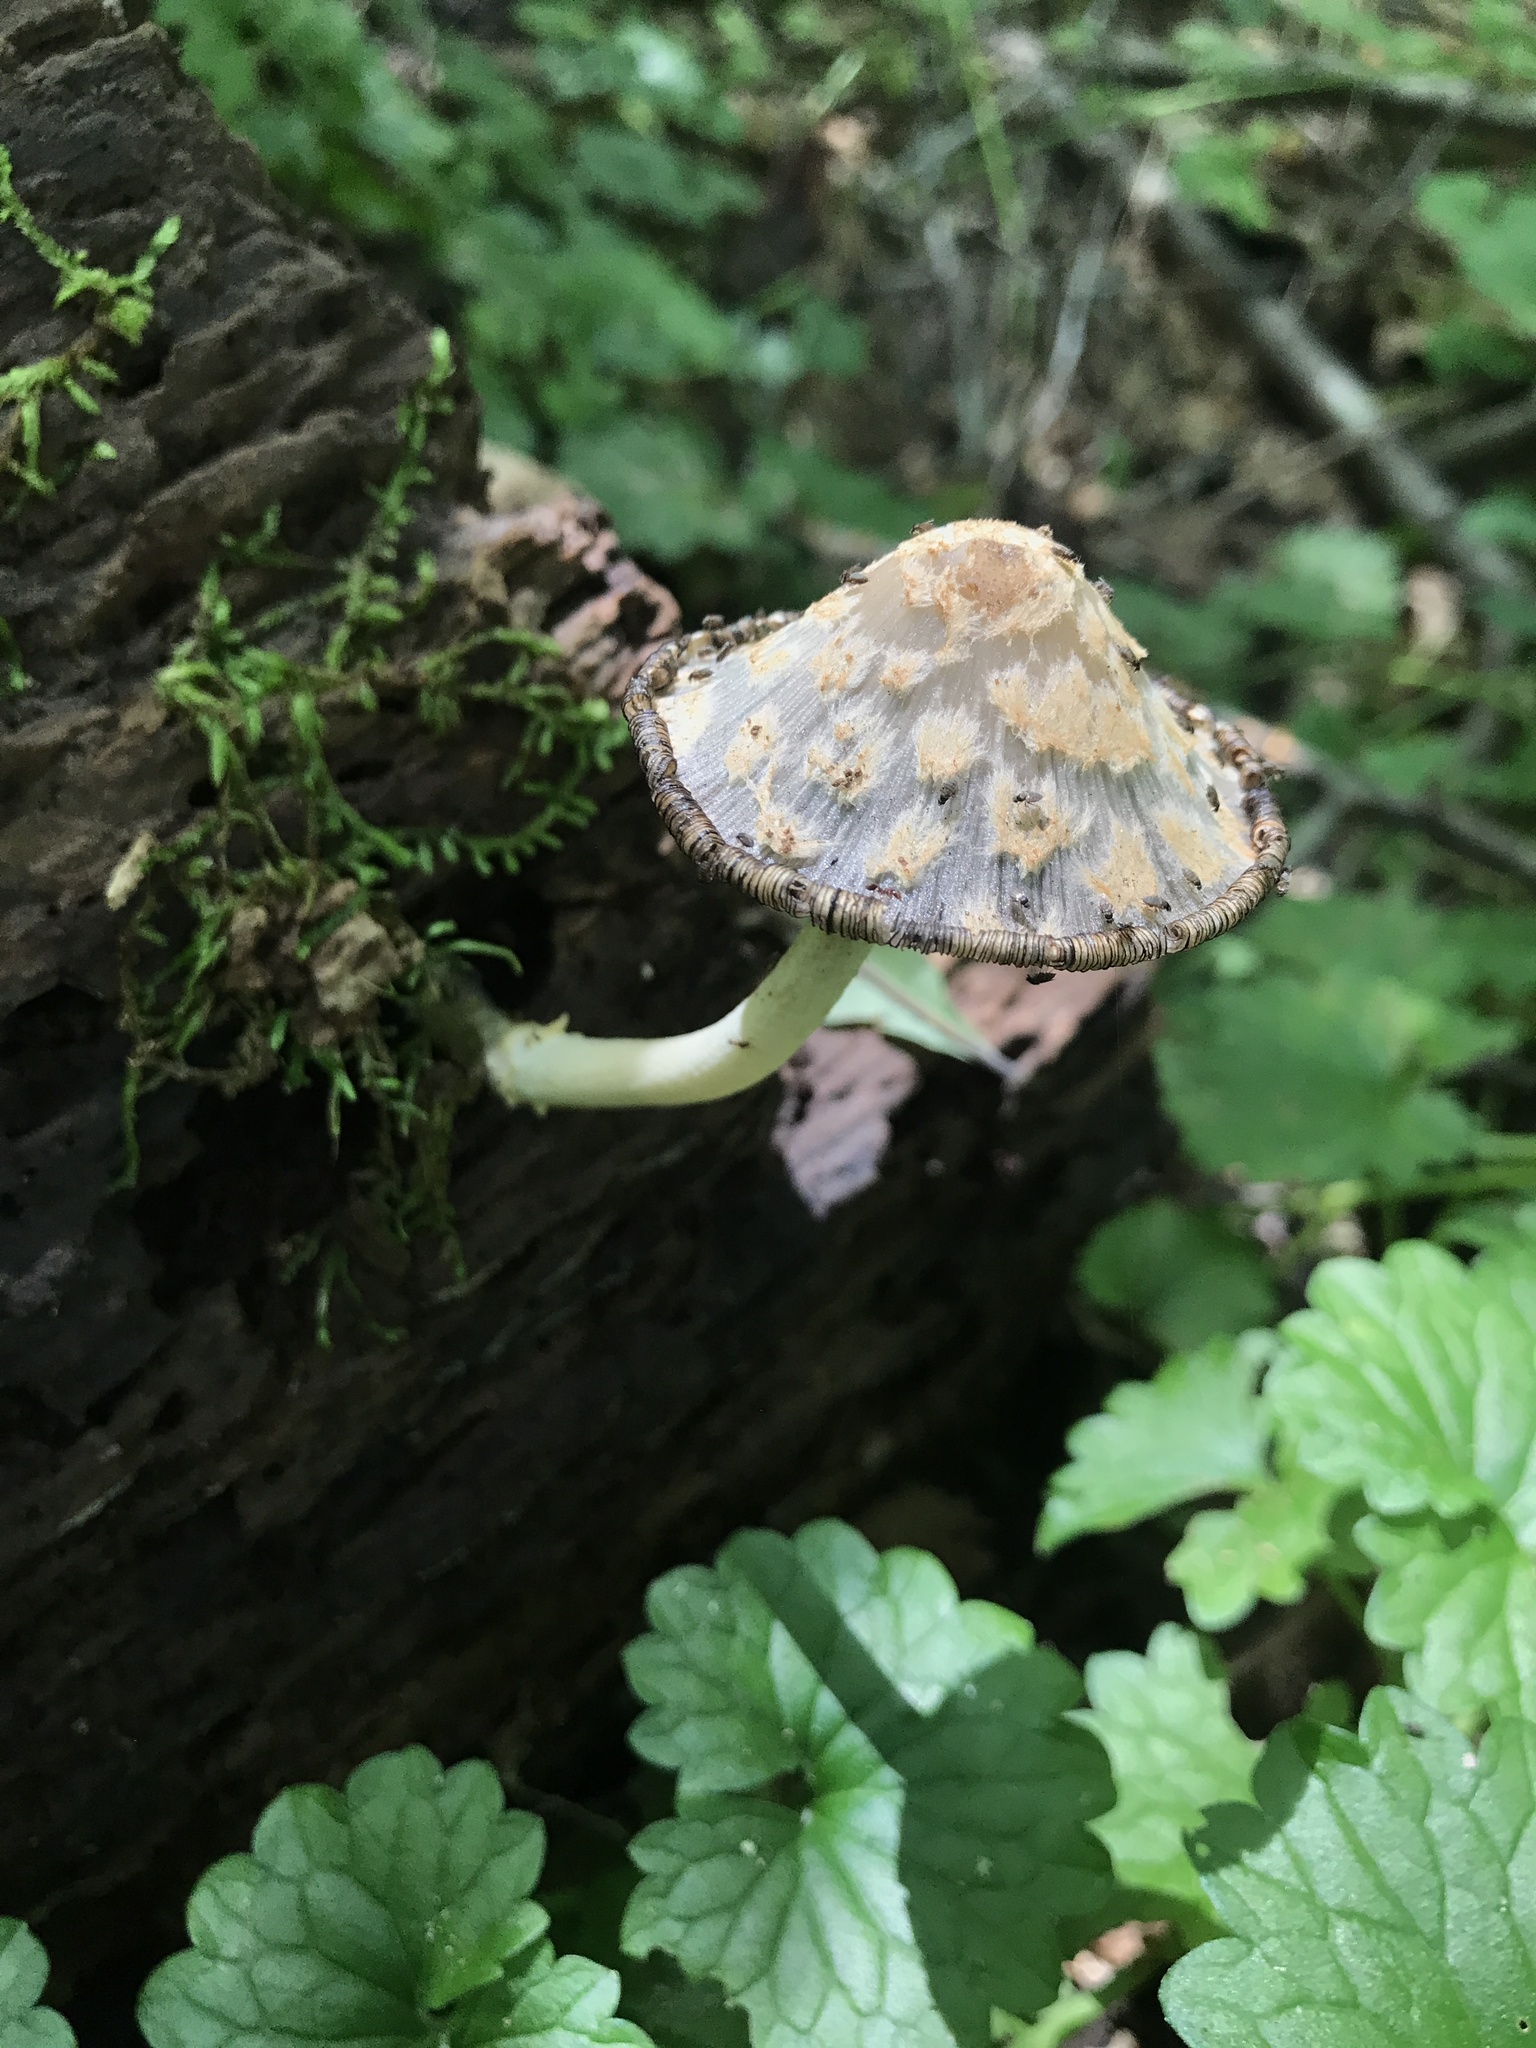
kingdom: Fungi
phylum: Basidiomycota
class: Agaricomycetes
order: Agaricales
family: Psathyrellaceae
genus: Coprinopsis
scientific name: Coprinopsis variegata
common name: Scaly ink cap
